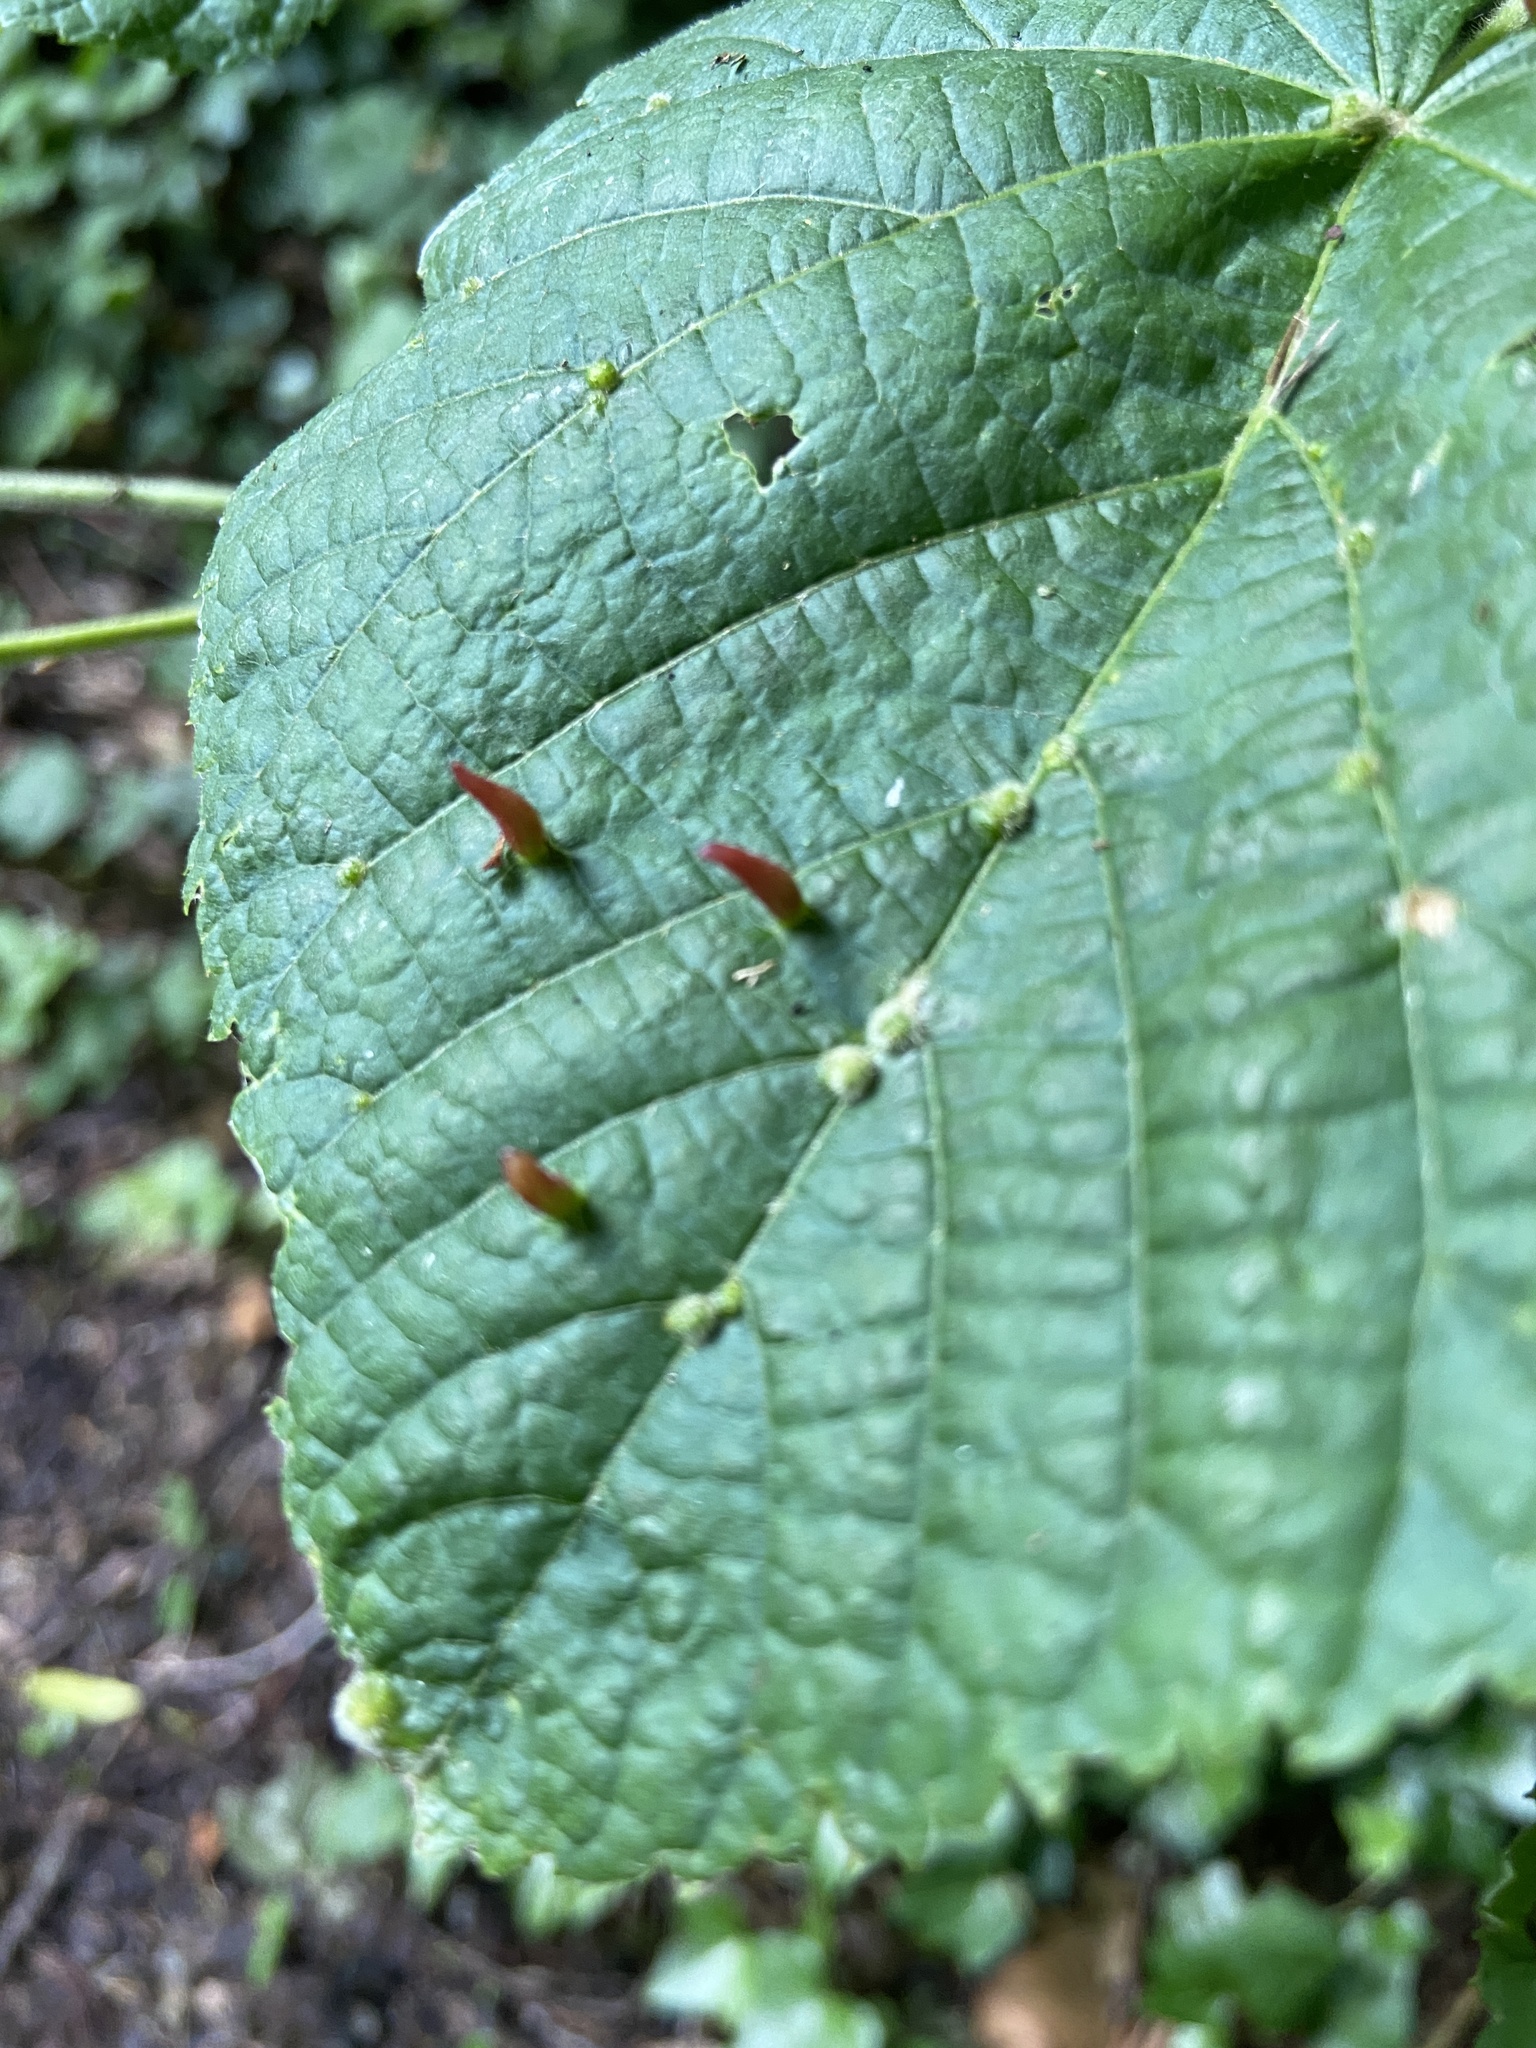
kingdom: Animalia
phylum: Arthropoda
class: Arachnida
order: Trombidiformes
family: Eriophyidae
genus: Eriophyes
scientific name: Eriophyes tiliae
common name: Red nail gall mite
